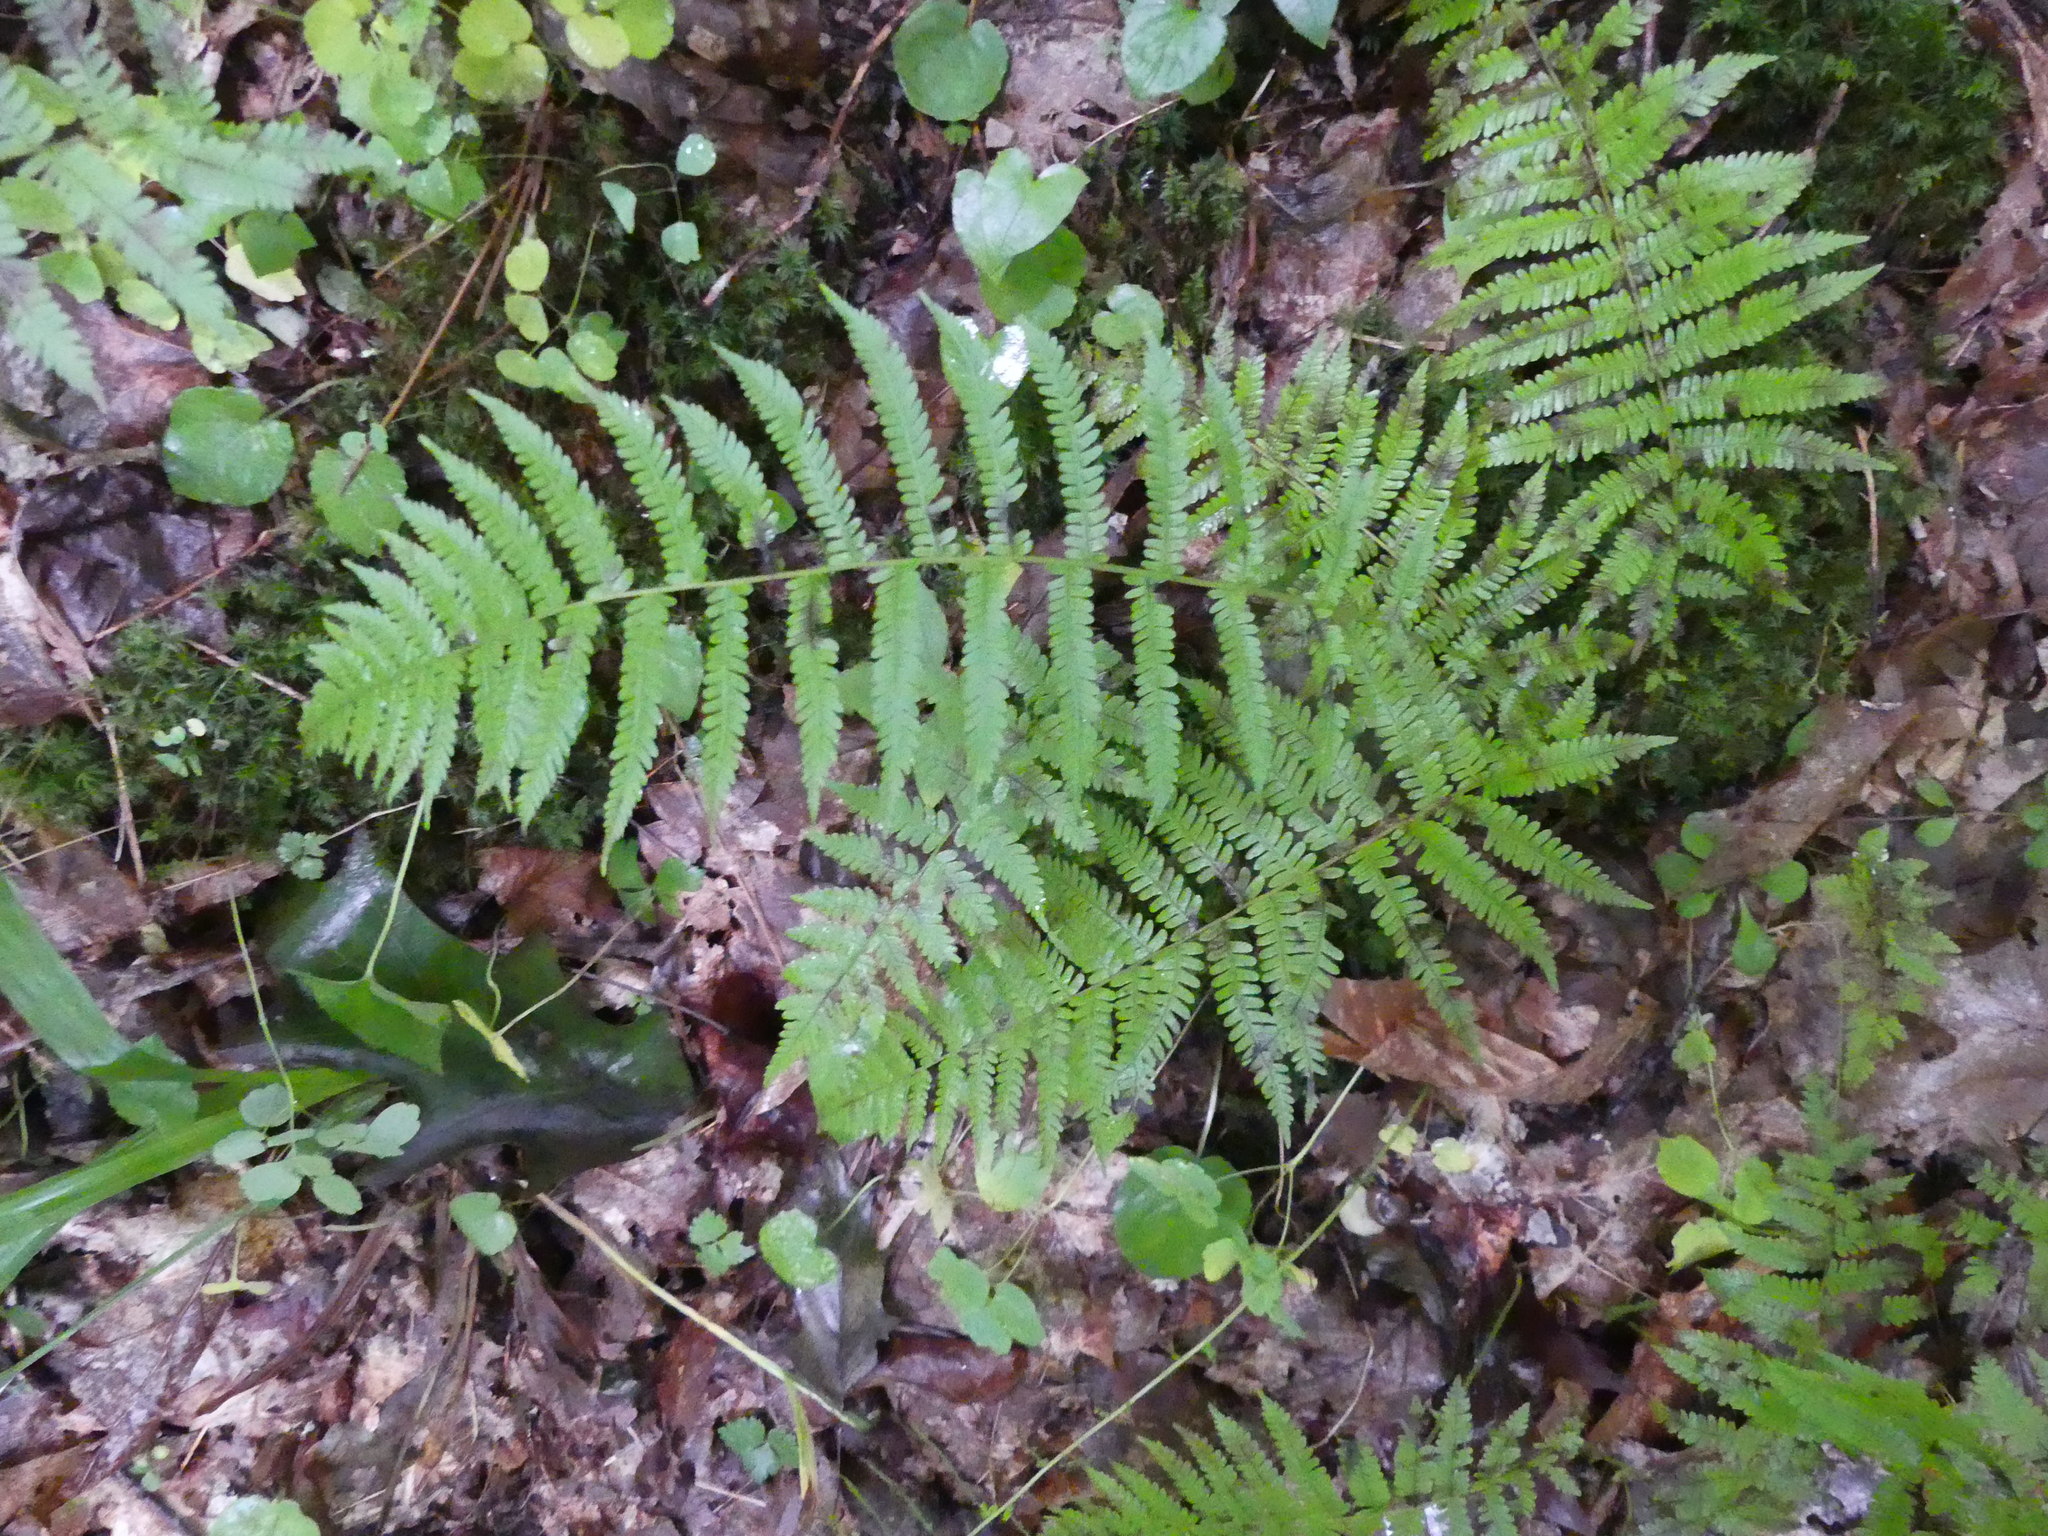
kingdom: Plantae
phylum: Tracheophyta
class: Polypodiopsida
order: Polypodiales
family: Thelypteridaceae
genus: Amauropelta
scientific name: Amauropelta noveboracensis
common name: New york fern
